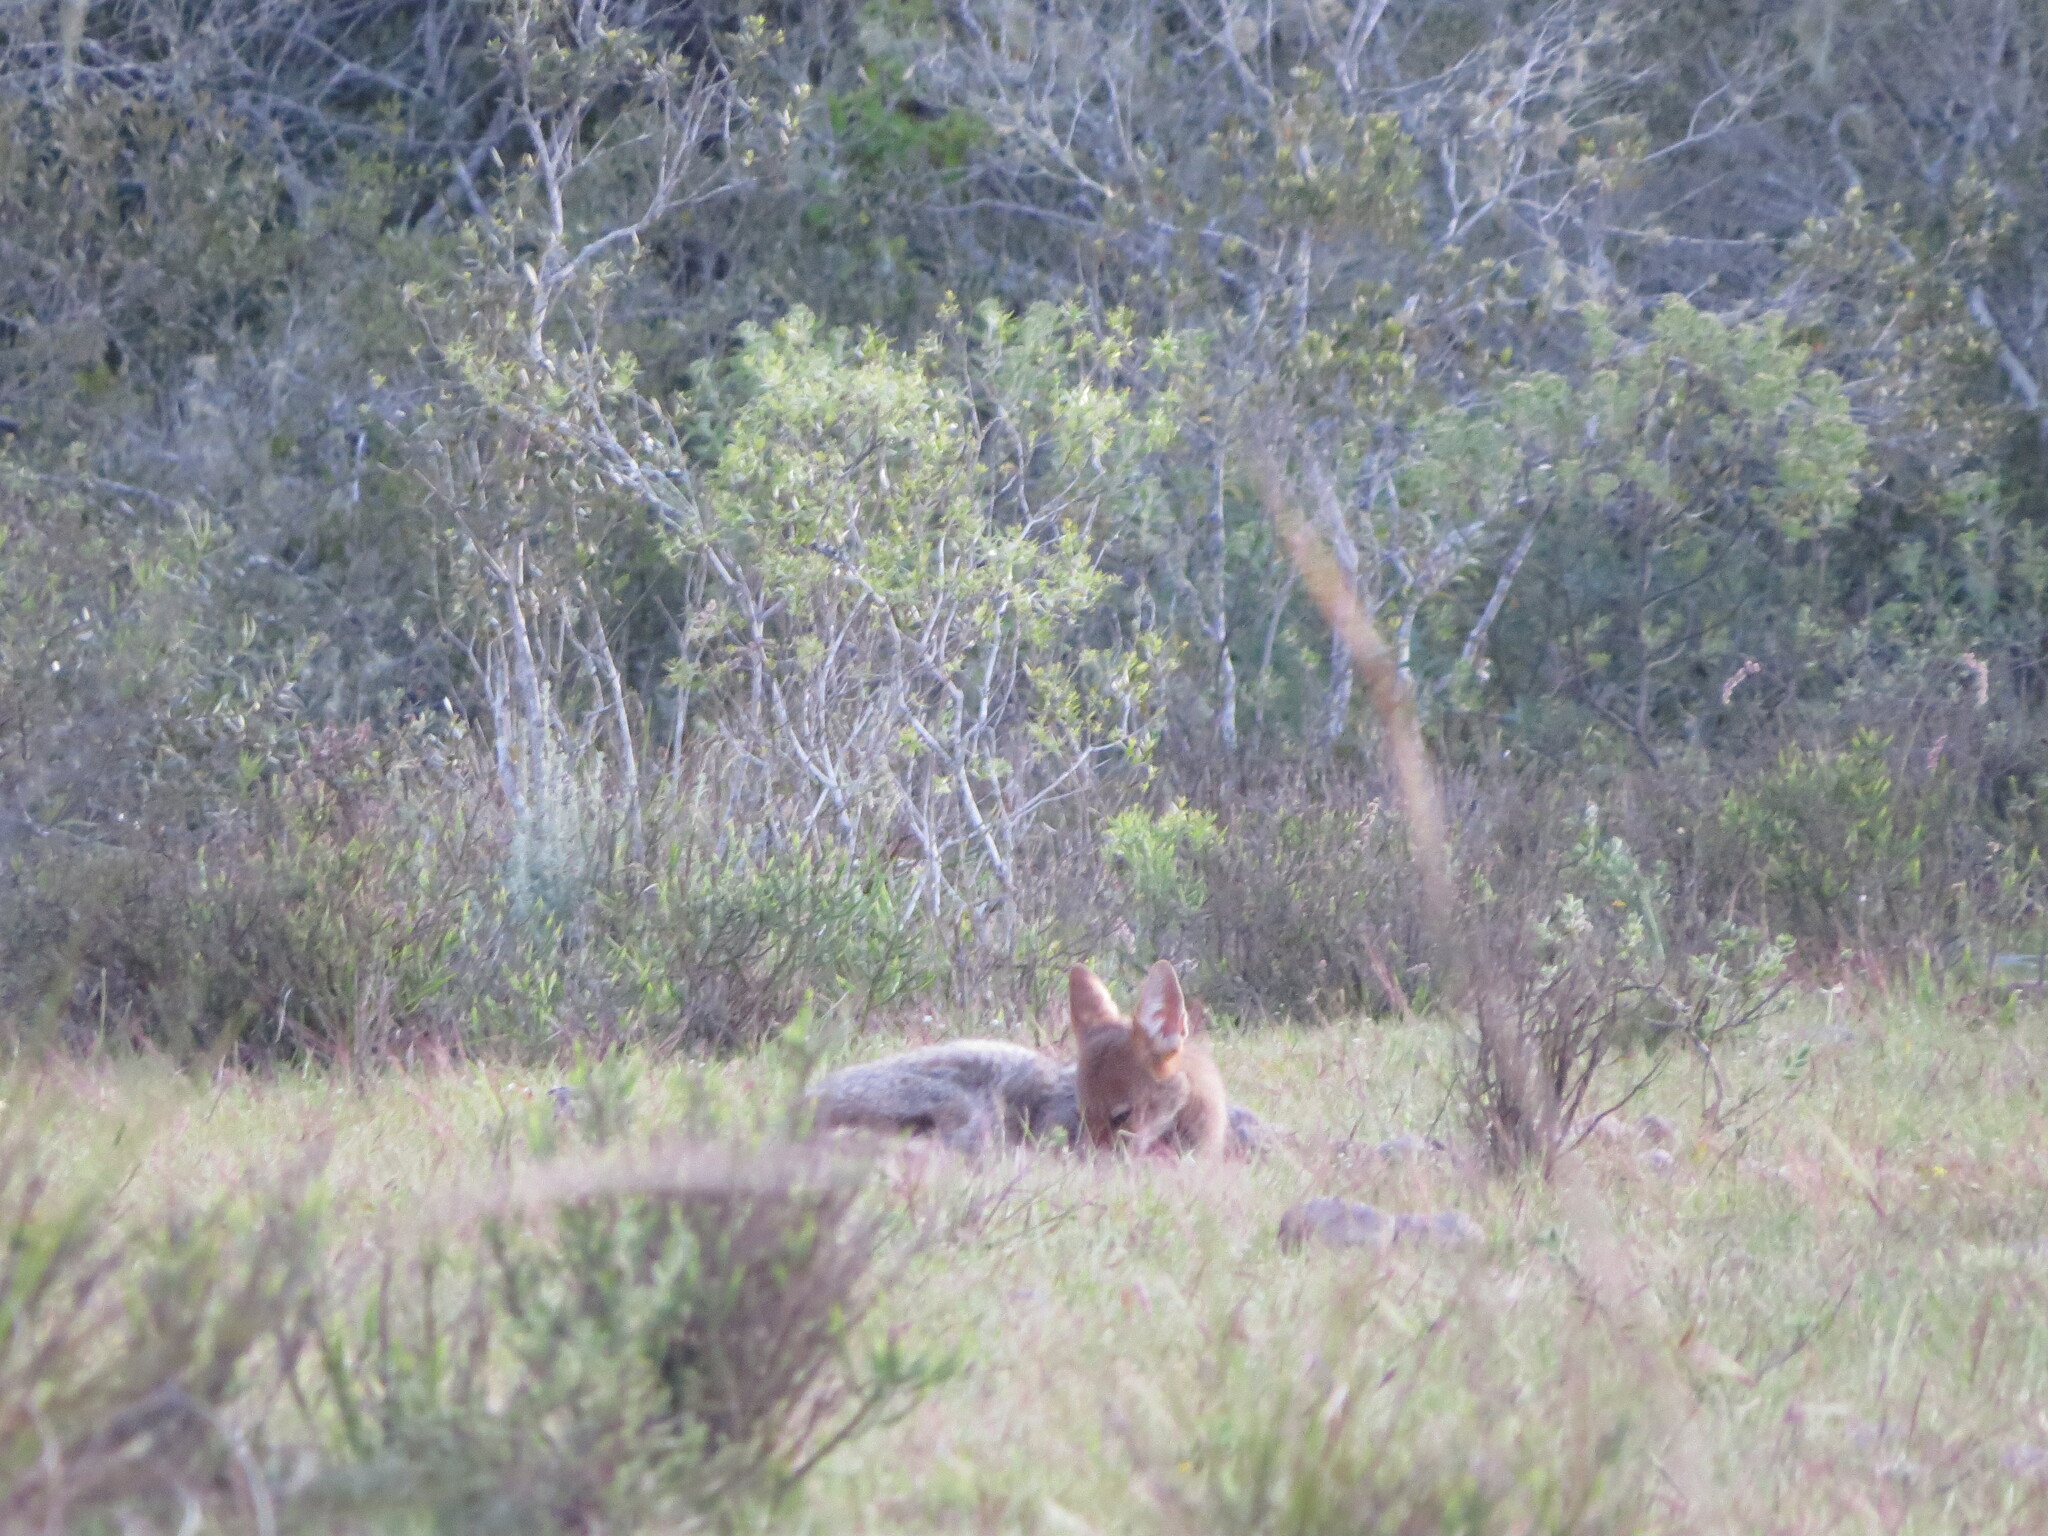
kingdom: Animalia
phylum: Chordata
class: Mammalia
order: Carnivora
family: Canidae
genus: Lycalopex
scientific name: Lycalopex gymnocercus
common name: Pampas fox
